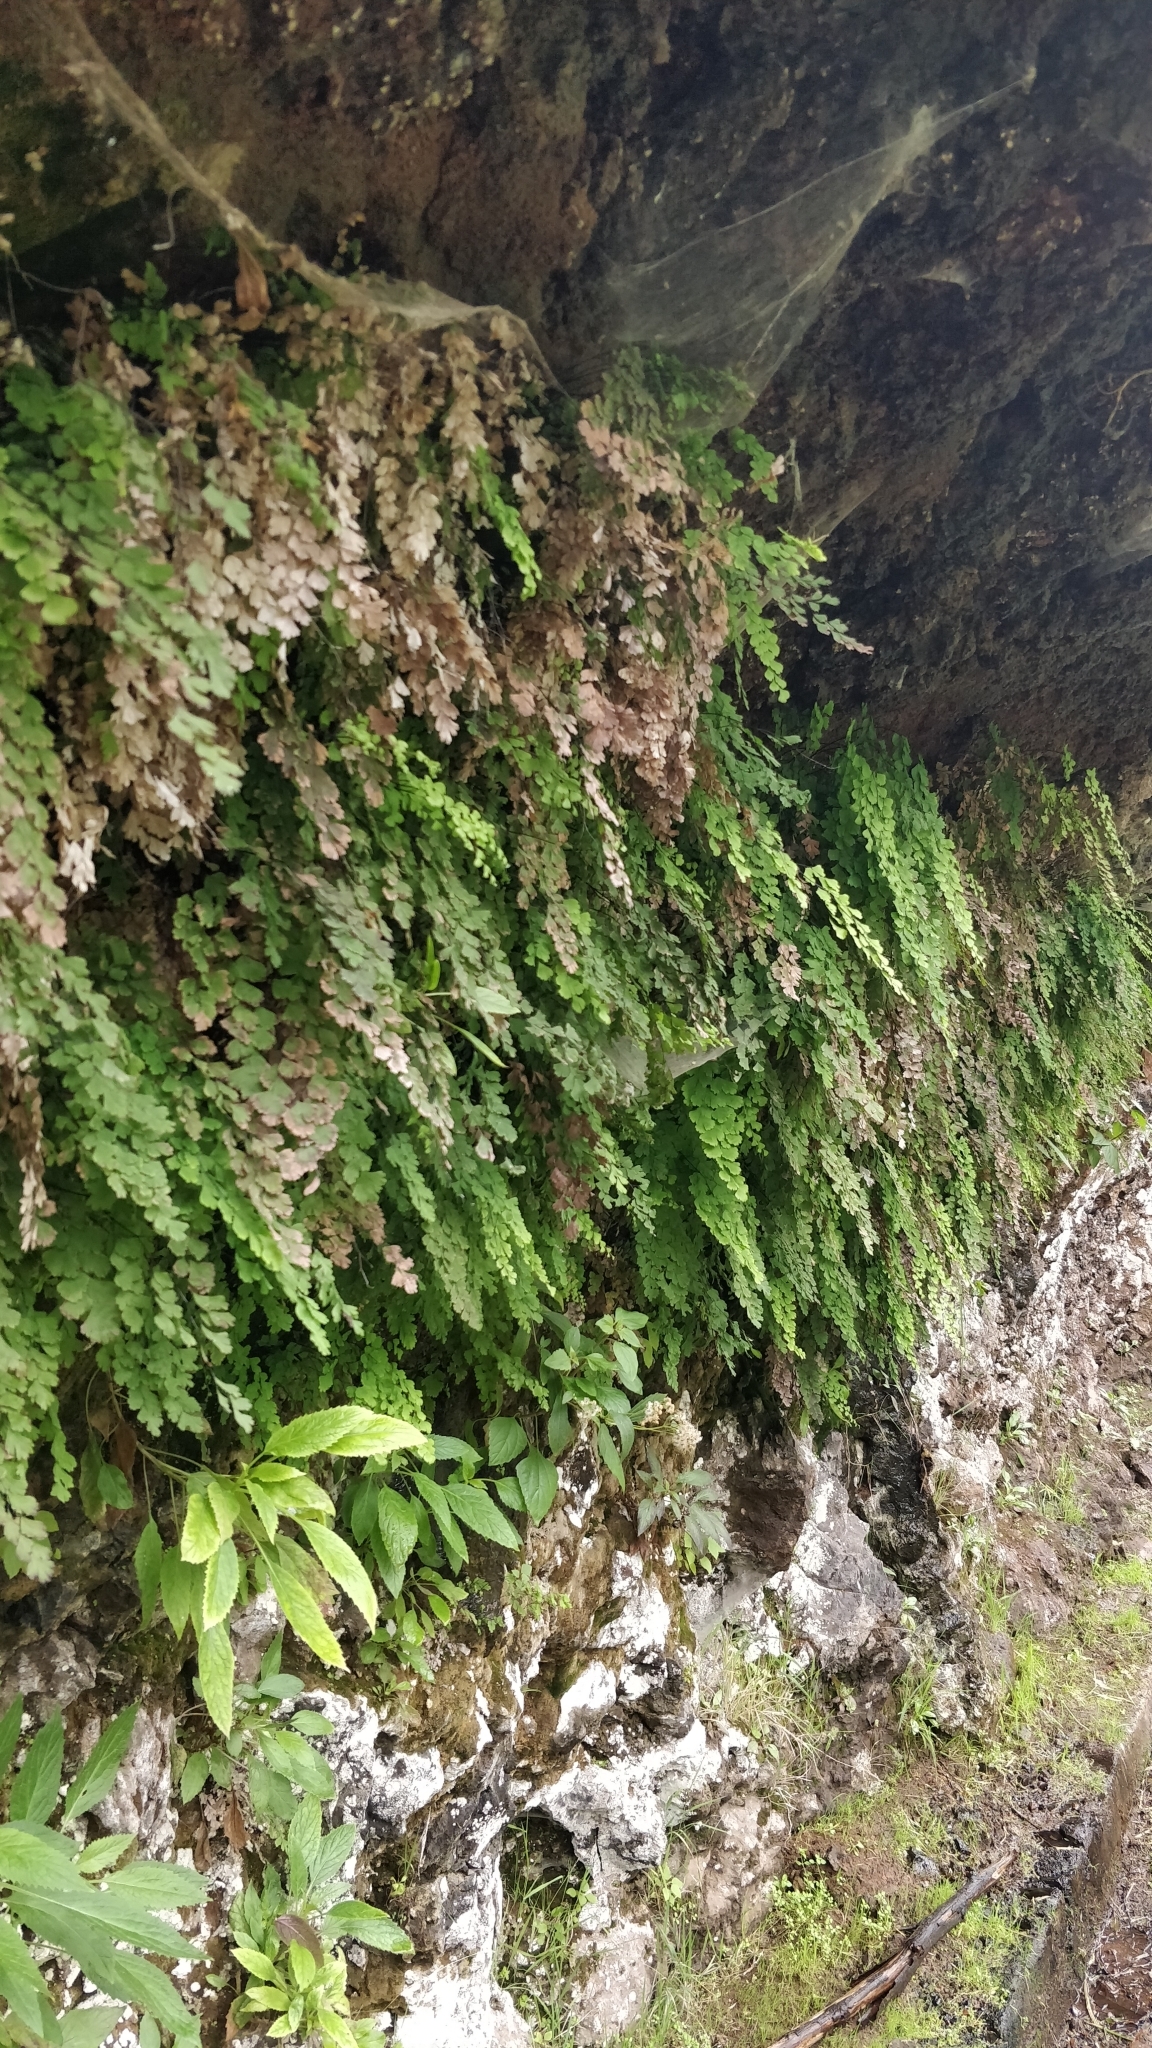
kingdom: Plantae
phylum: Tracheophyta
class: Polypodiopsida
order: Polypodiales
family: Pteridaceae
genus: Adiantum
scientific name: Adiantum capillus-veneris
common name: Maidenhair fern
